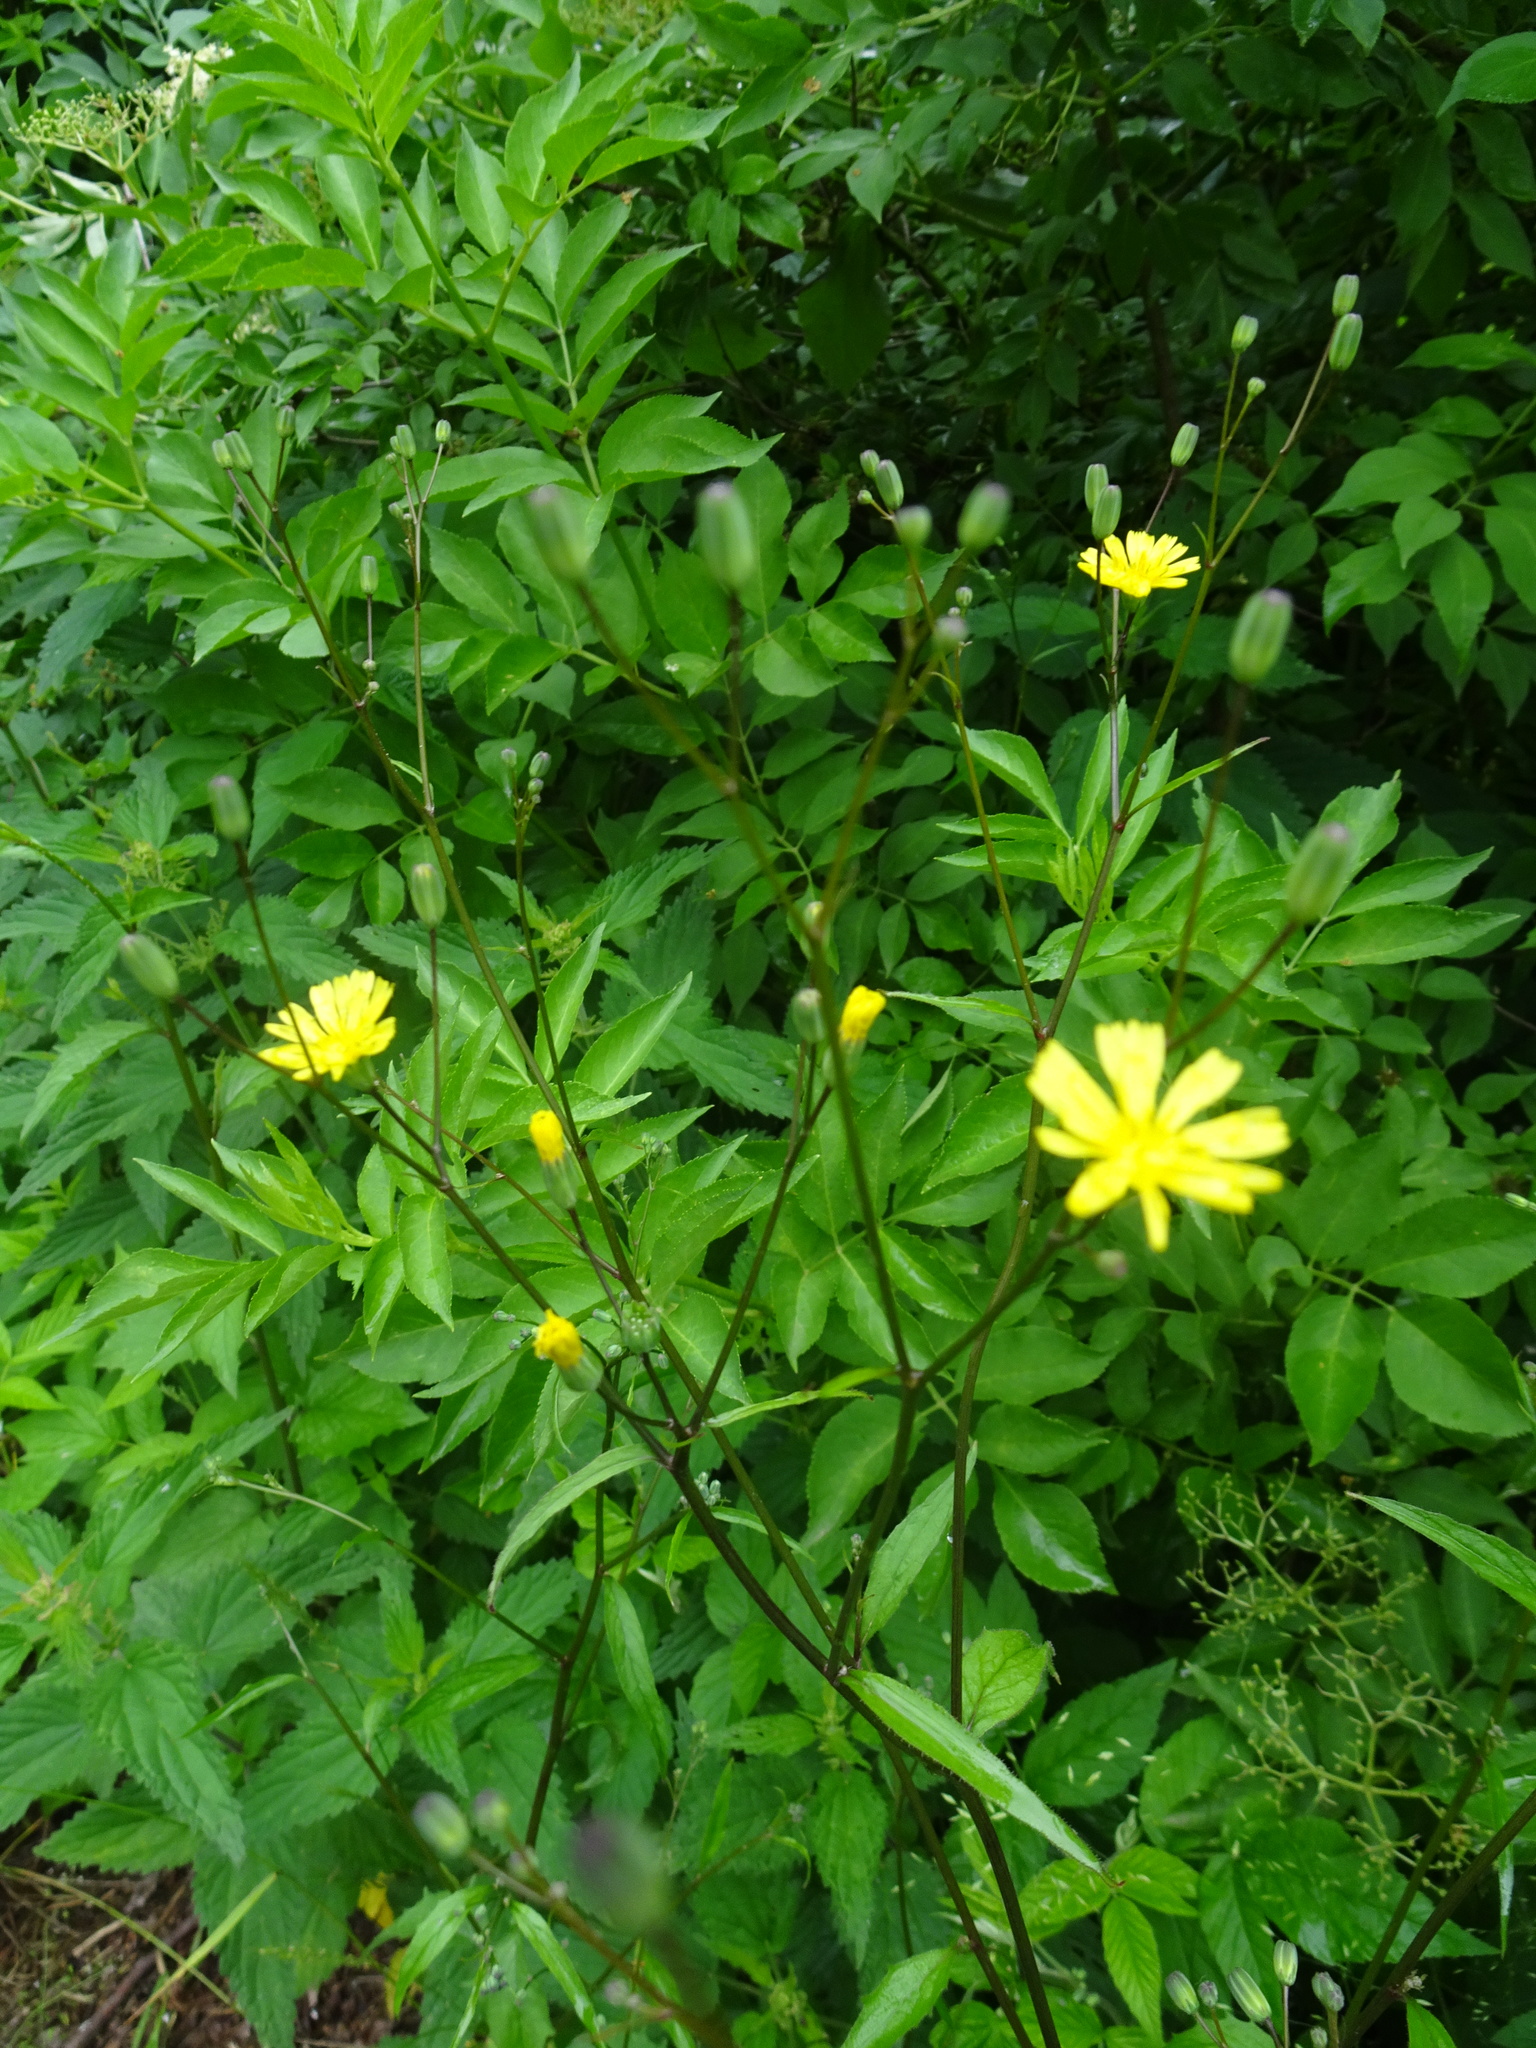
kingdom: Plantae
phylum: Tracheophyta
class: Magnoliopsida
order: Asterales
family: Asteraceae
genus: Lapsana
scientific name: Lapsana communis
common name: Nipplewort
